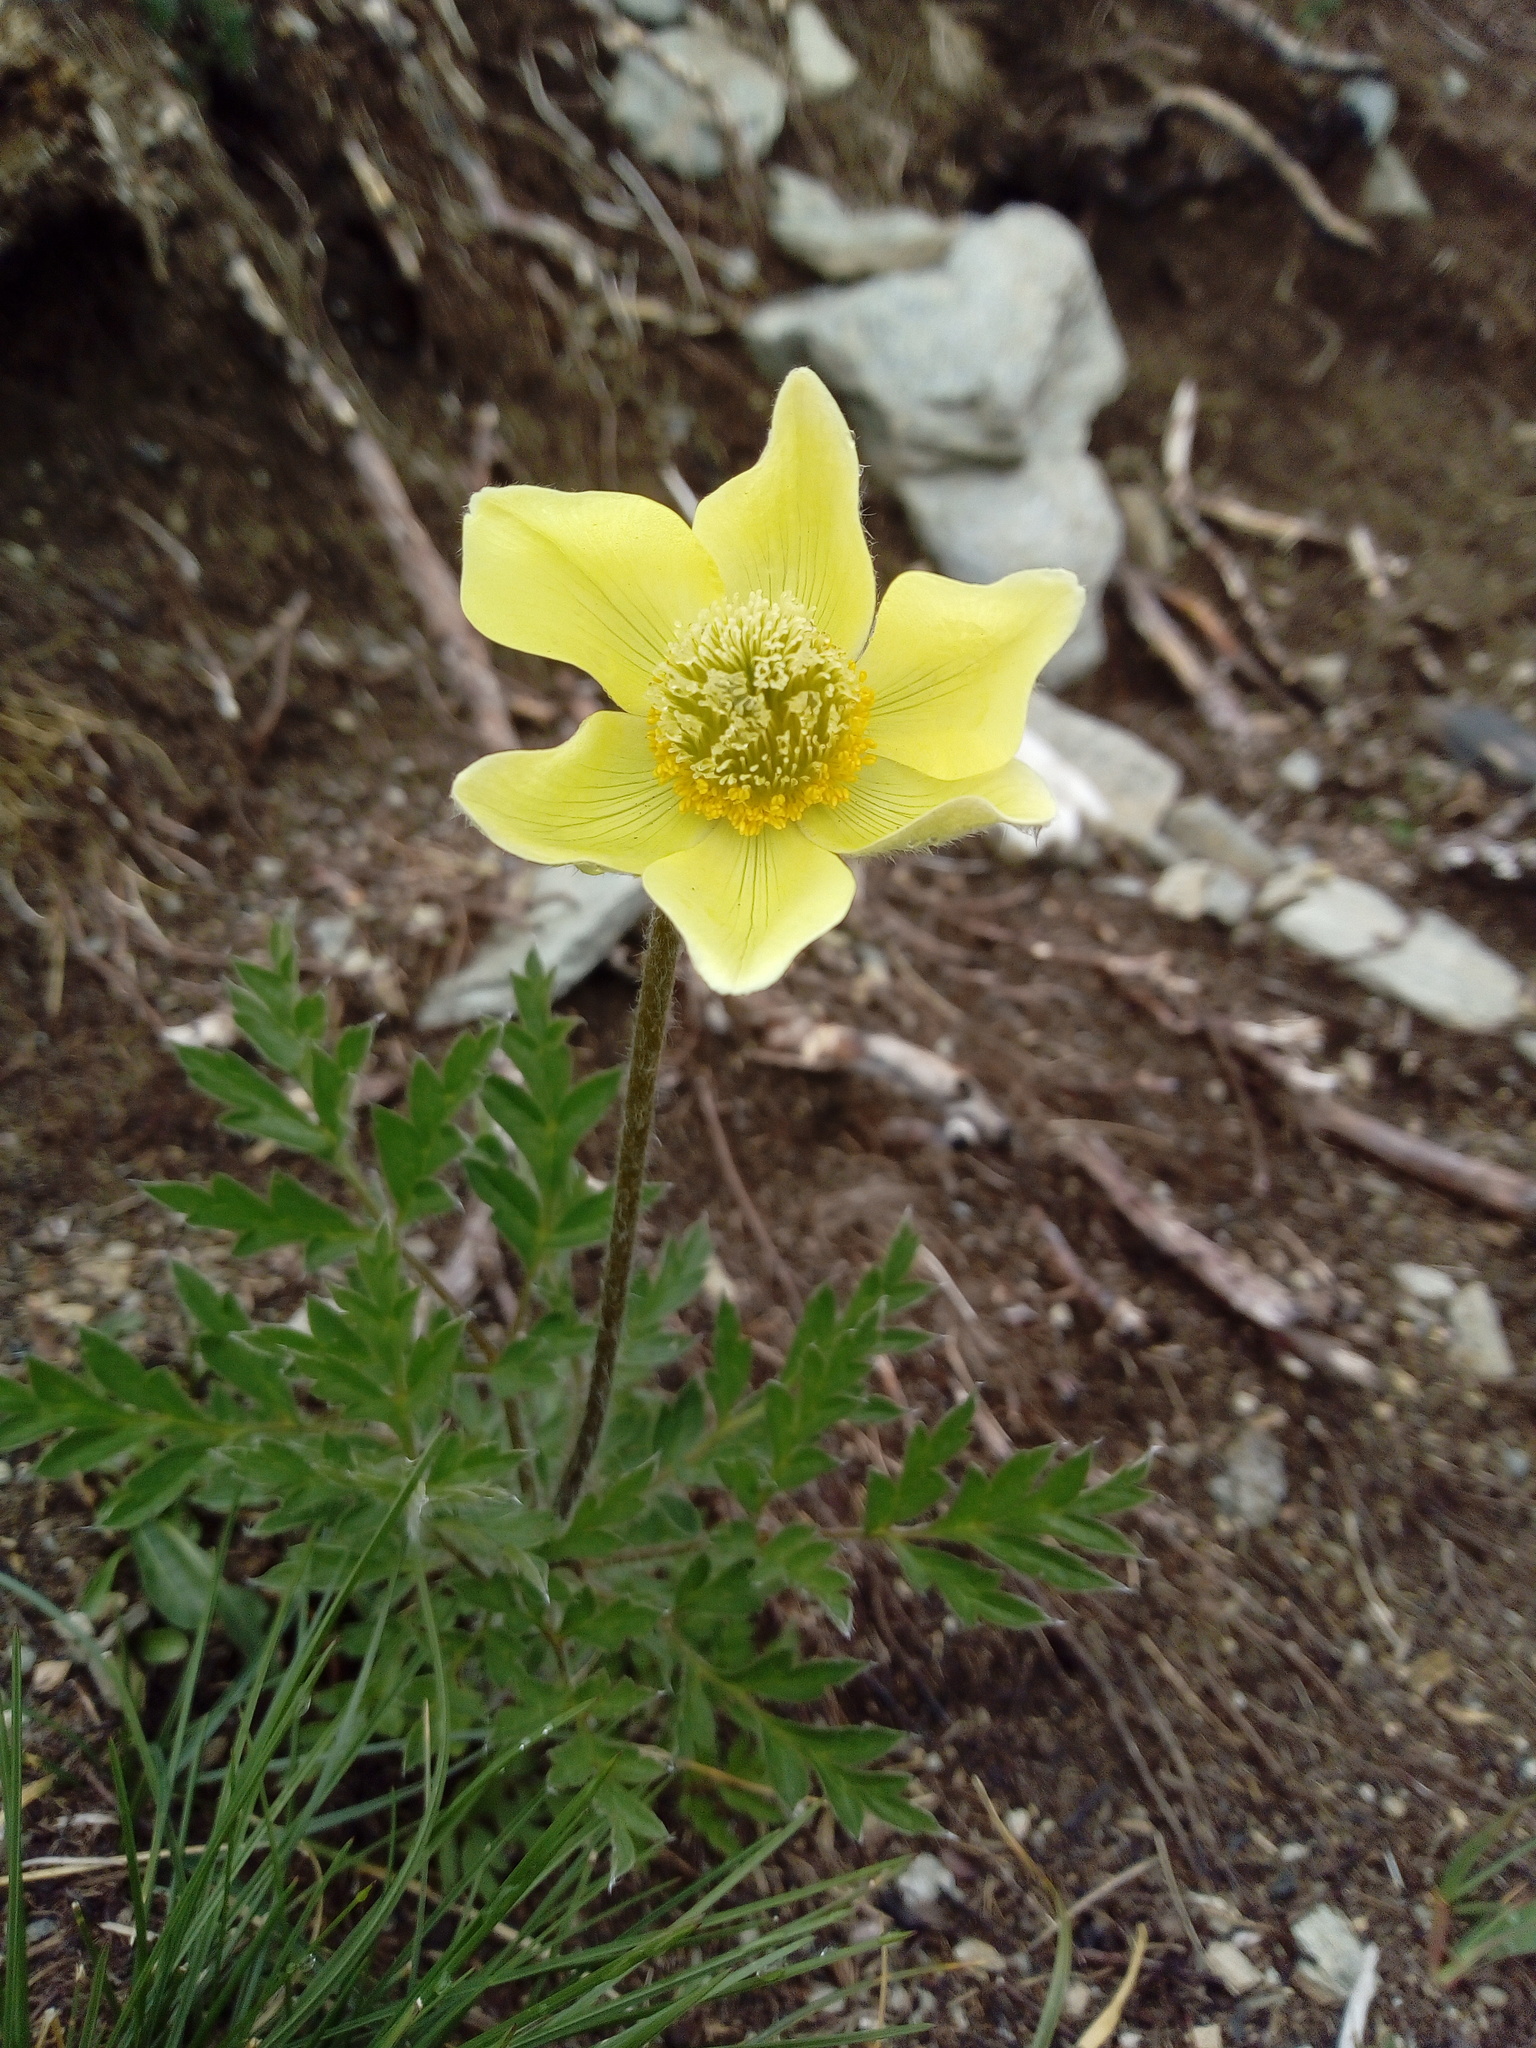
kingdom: Plantae
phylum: Tracheophyta
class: Magnoliopsida
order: Ranunculales
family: Ranunculaceae
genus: Pulsatilla
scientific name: Pulsatilla alpina
